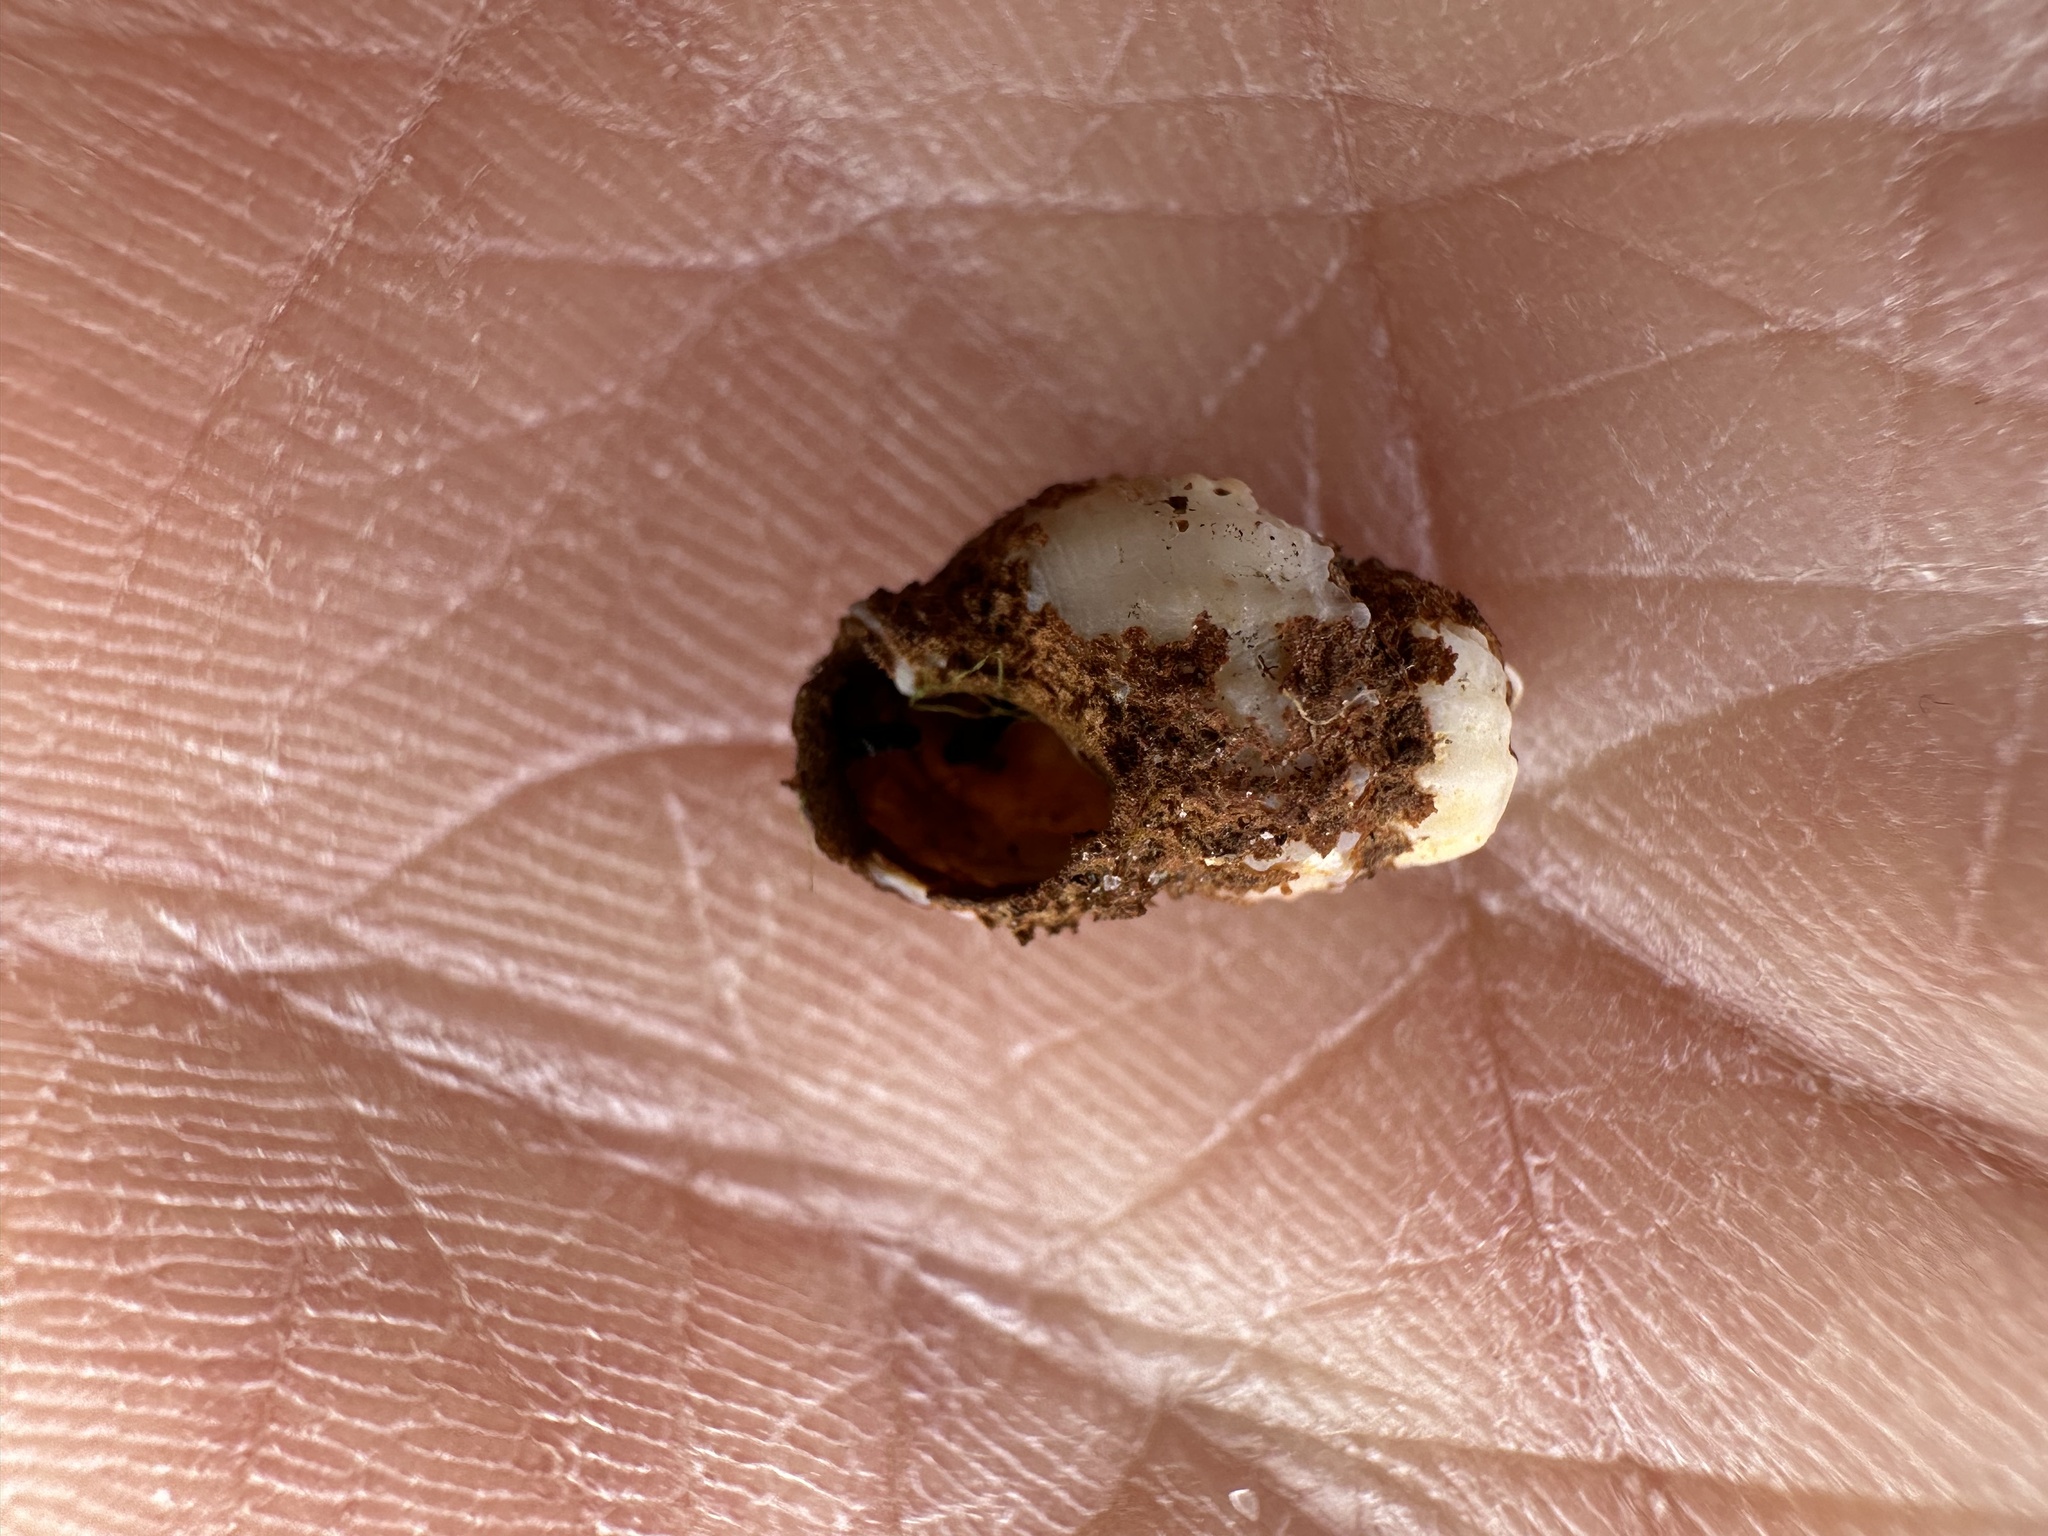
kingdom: Animalia
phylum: Mollusca
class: Gastropoda
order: Neogastropoda
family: Nassariidae
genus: Ilyanassa
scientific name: Ilyanassa trivittata
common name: Three-line mudsnail
